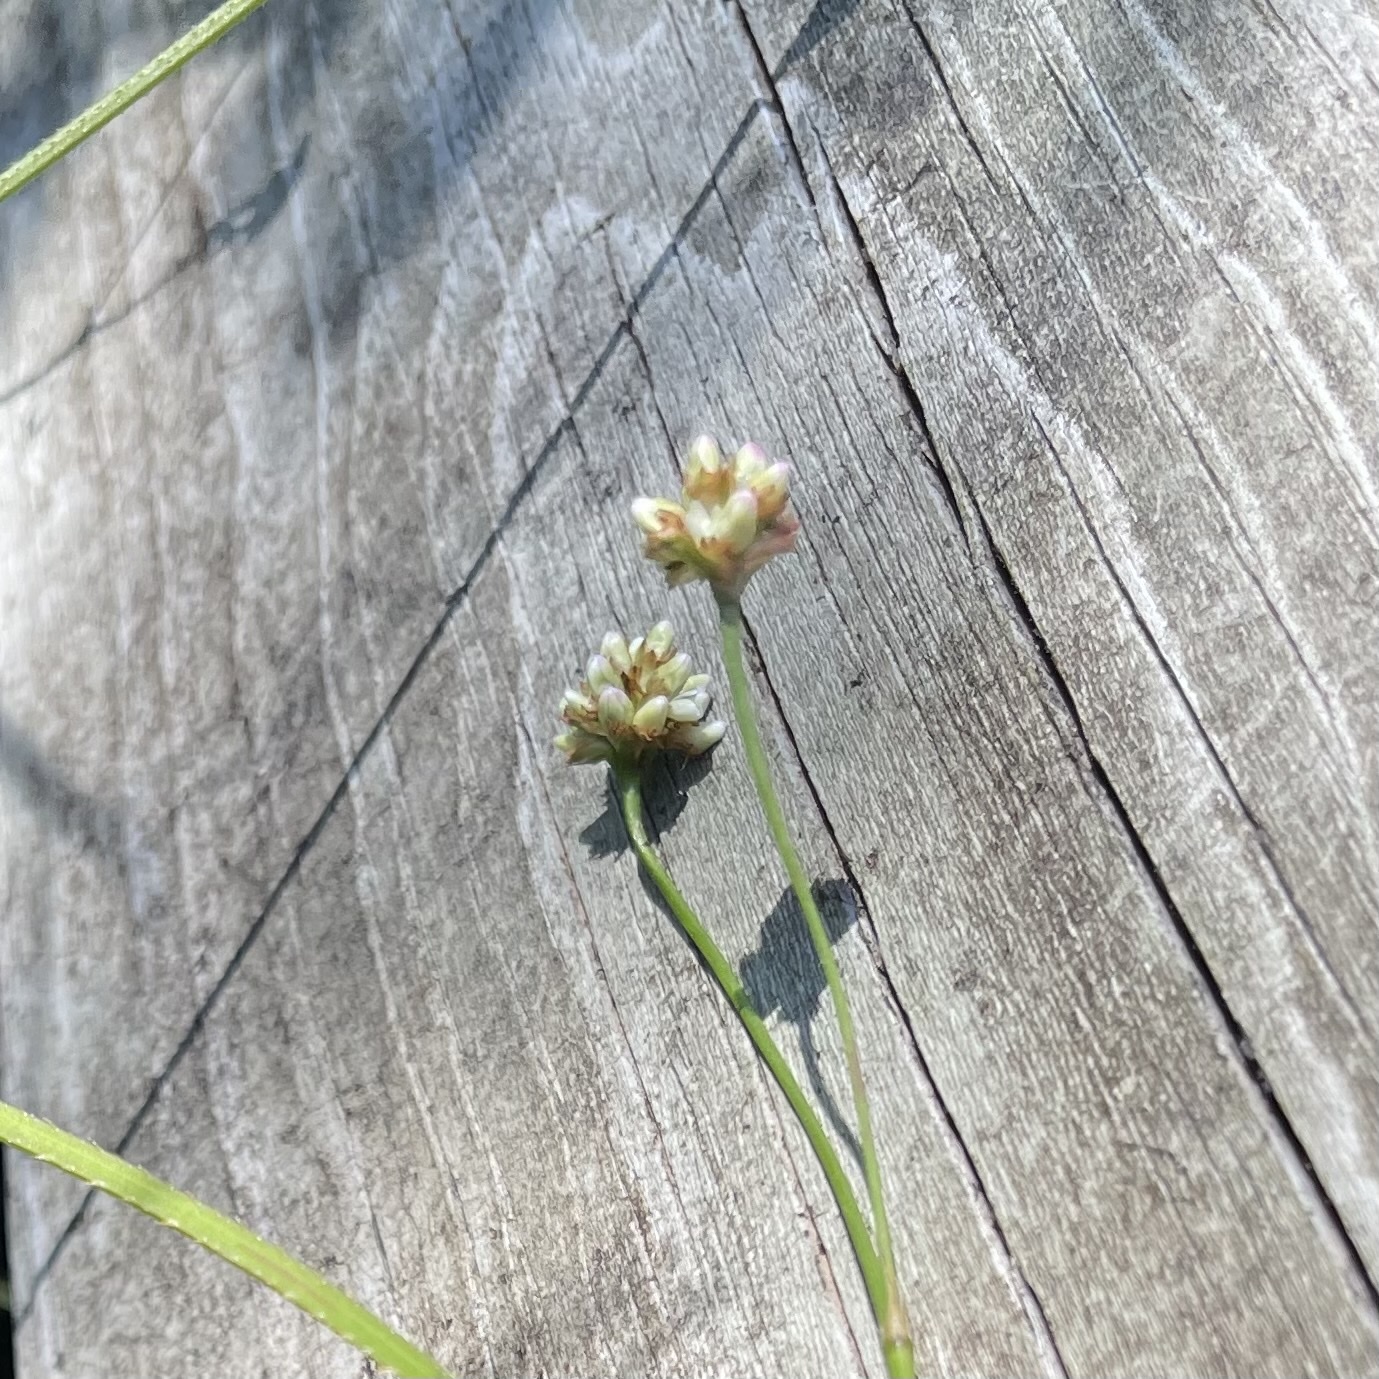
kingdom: Plantae
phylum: Tracheophyta
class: Magnoliopsida
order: Caryophyllales
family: Polygonaceae
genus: Persicaria
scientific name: Persicaria sagittata
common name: American tearthumb
